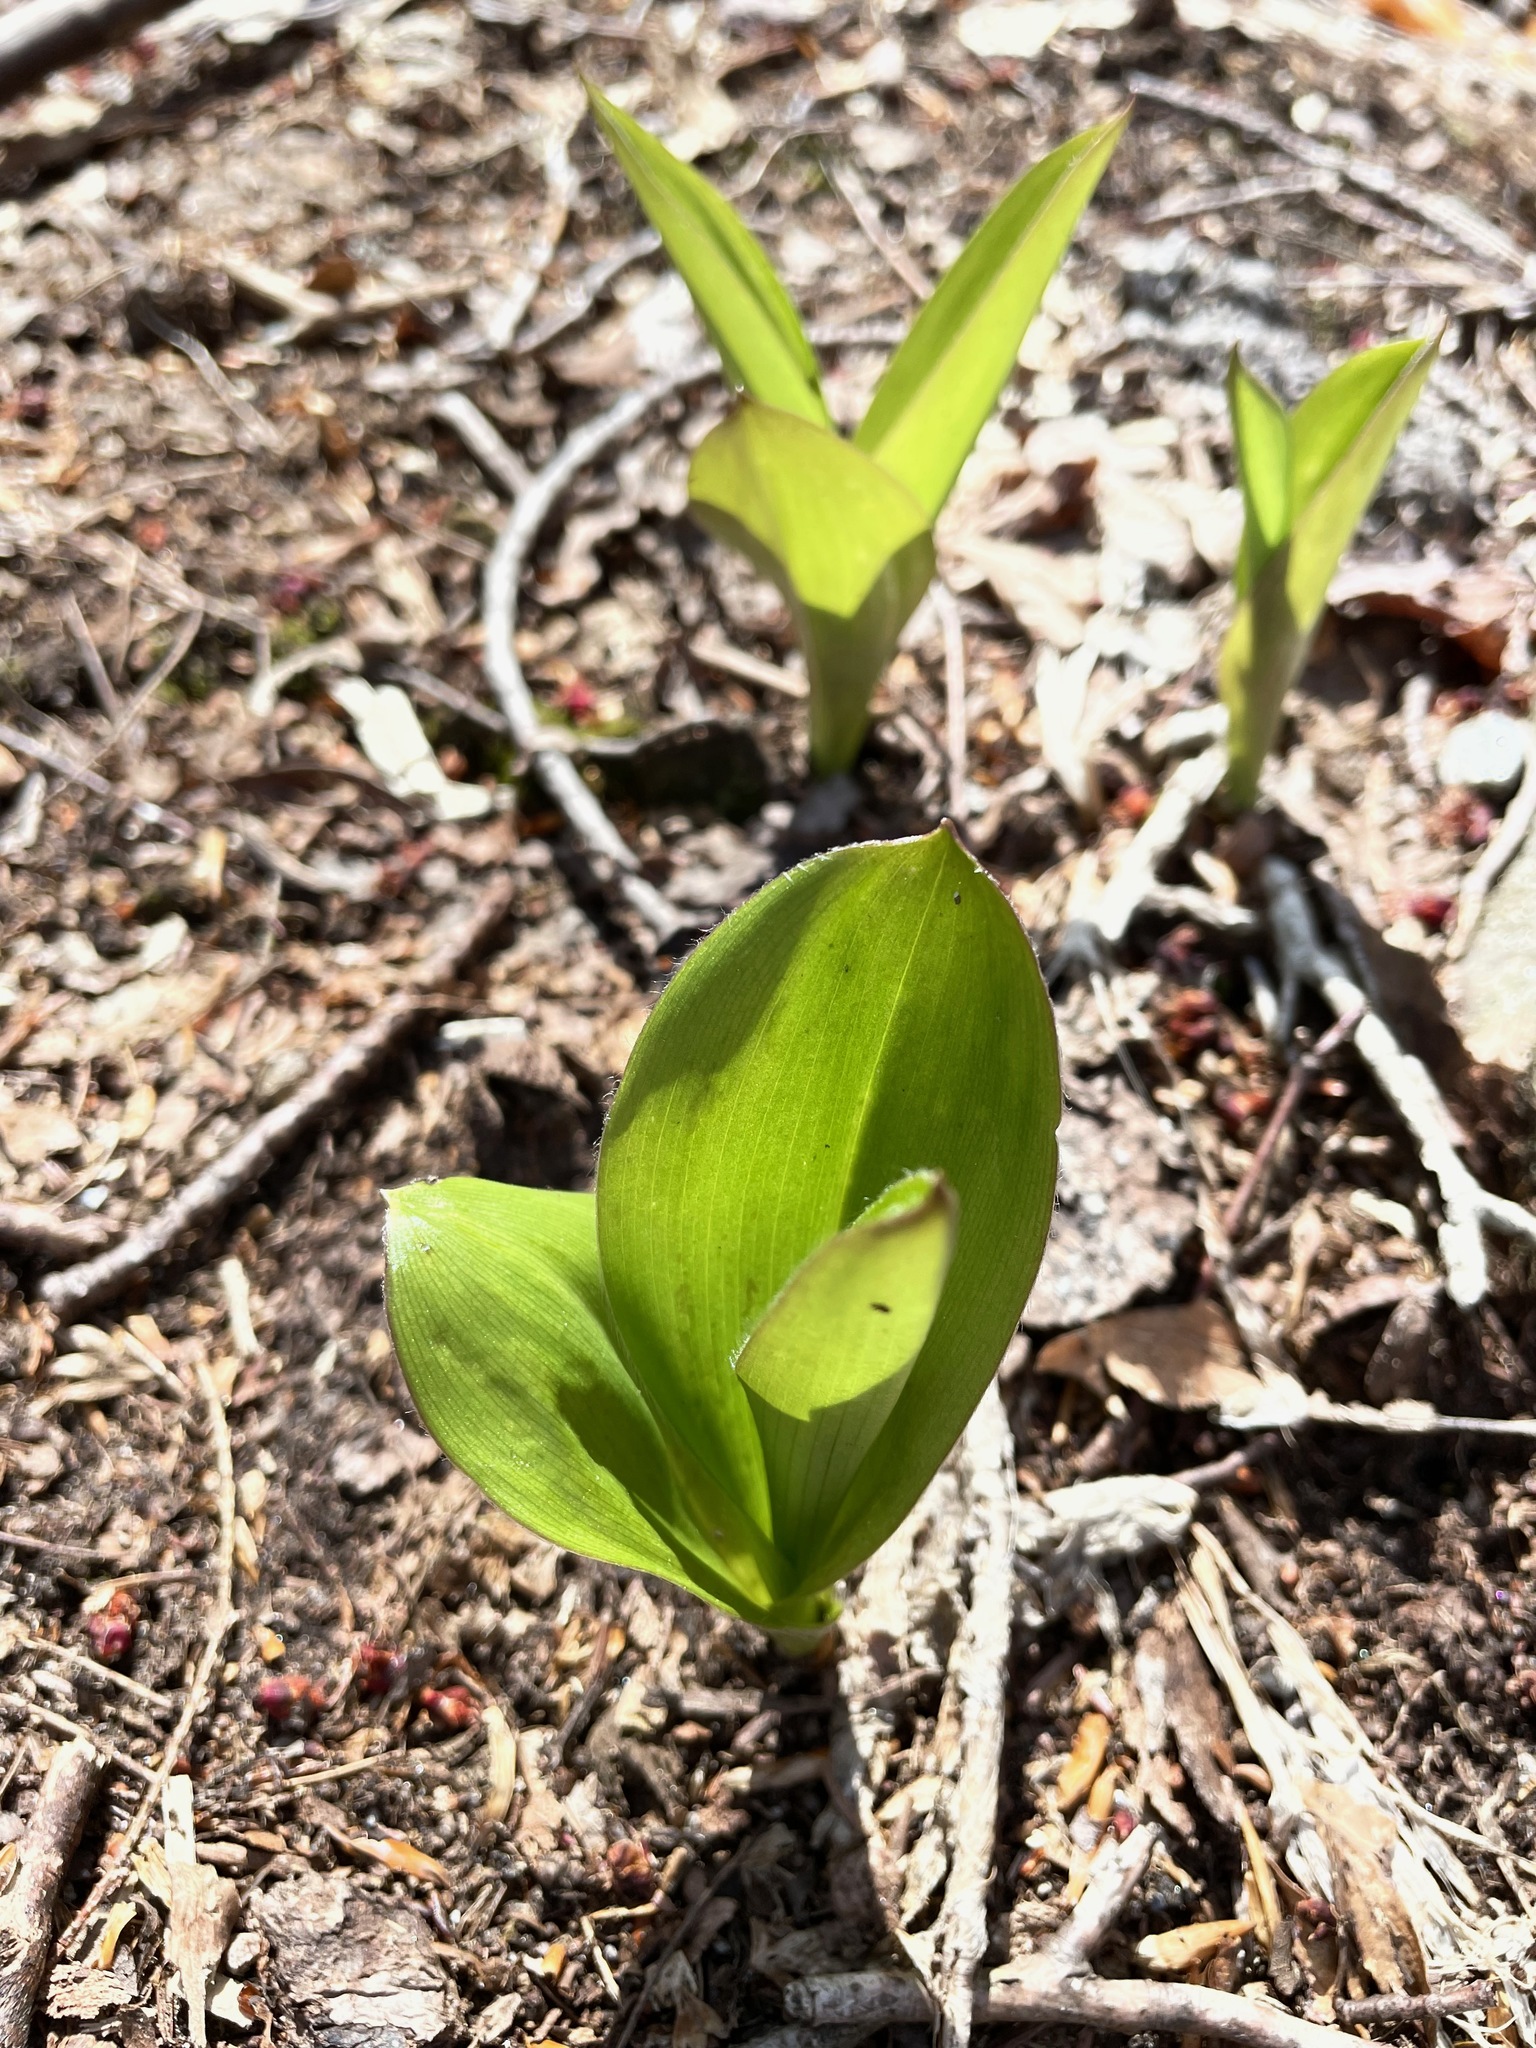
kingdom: Plantae
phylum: Tracheophyta
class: Liliopsida
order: Liliales
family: Liliaceae
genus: Clintonia
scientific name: Clintonia borealis
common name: Yellow clintonia
